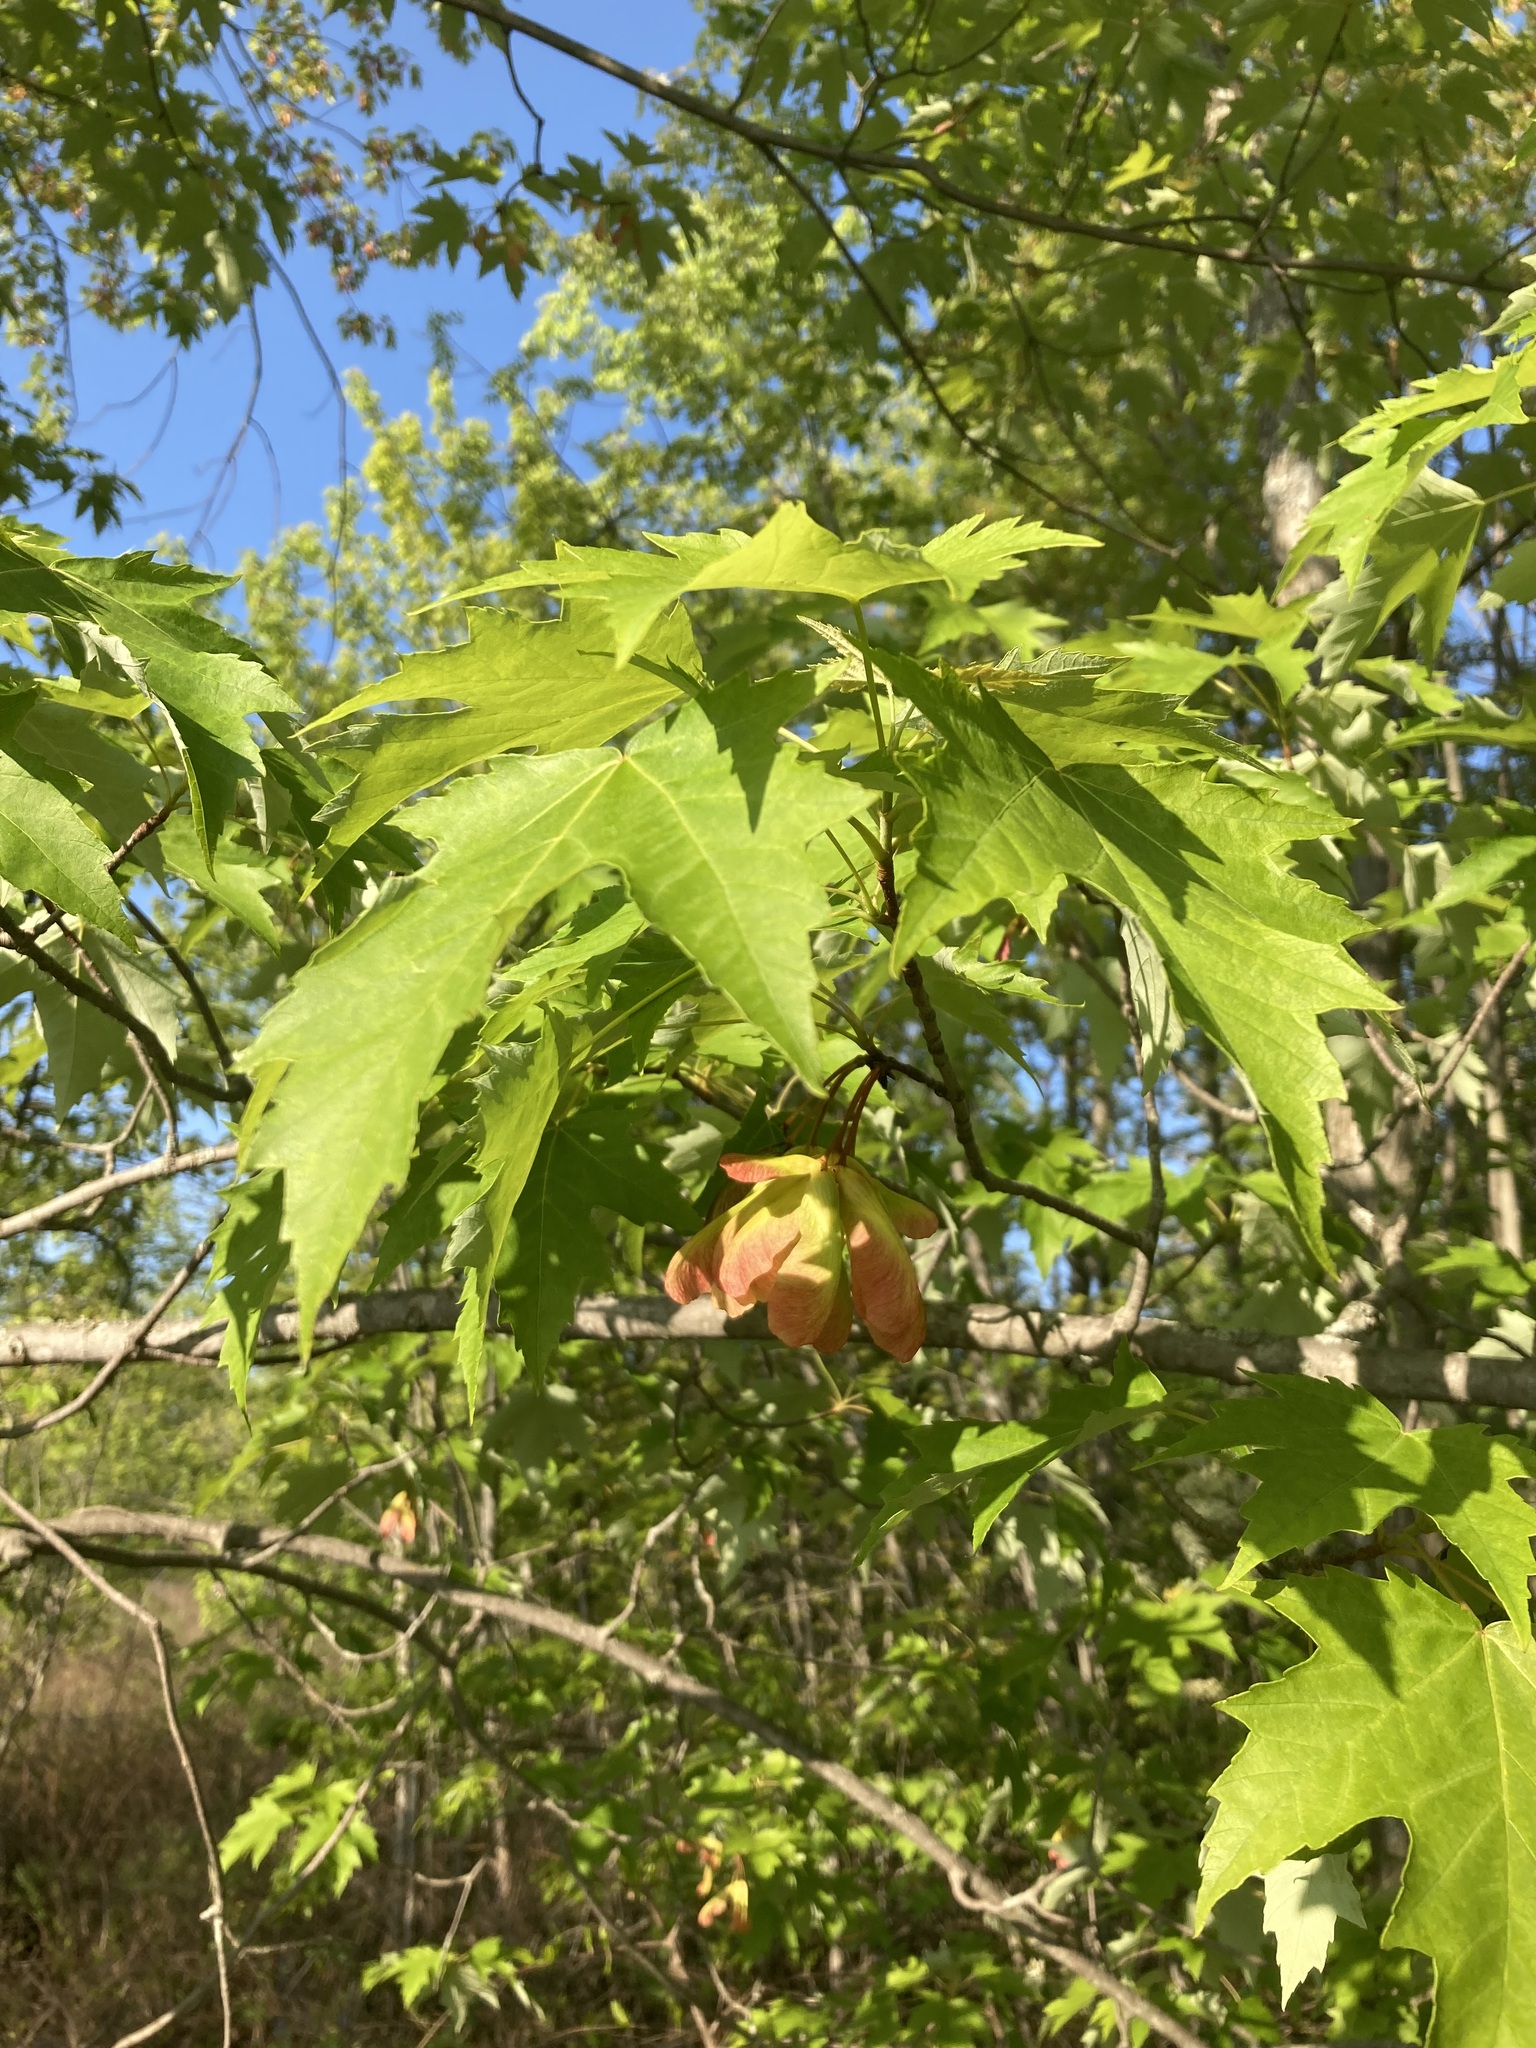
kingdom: Plantae
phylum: Tracheophyta
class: Magnoliopsida
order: Sapindales
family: Sapindaceae
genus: Acer
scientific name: Acer saccharinum
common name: Silver maple
